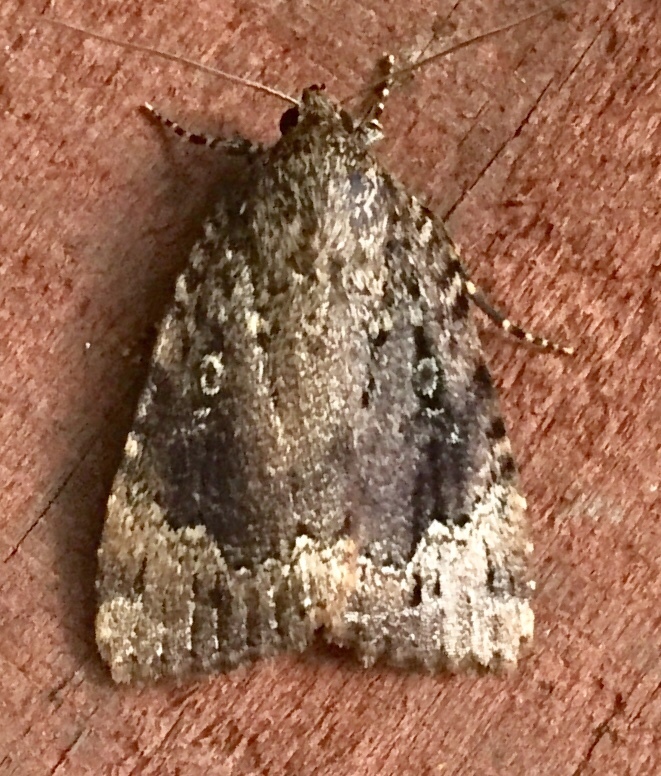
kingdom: Animalia
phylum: Arthropoda
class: Insecta
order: Lepidoptera
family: Noctuidae
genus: Amphipyra
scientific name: Amphipyra pyramidoides
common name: American copper underwing
